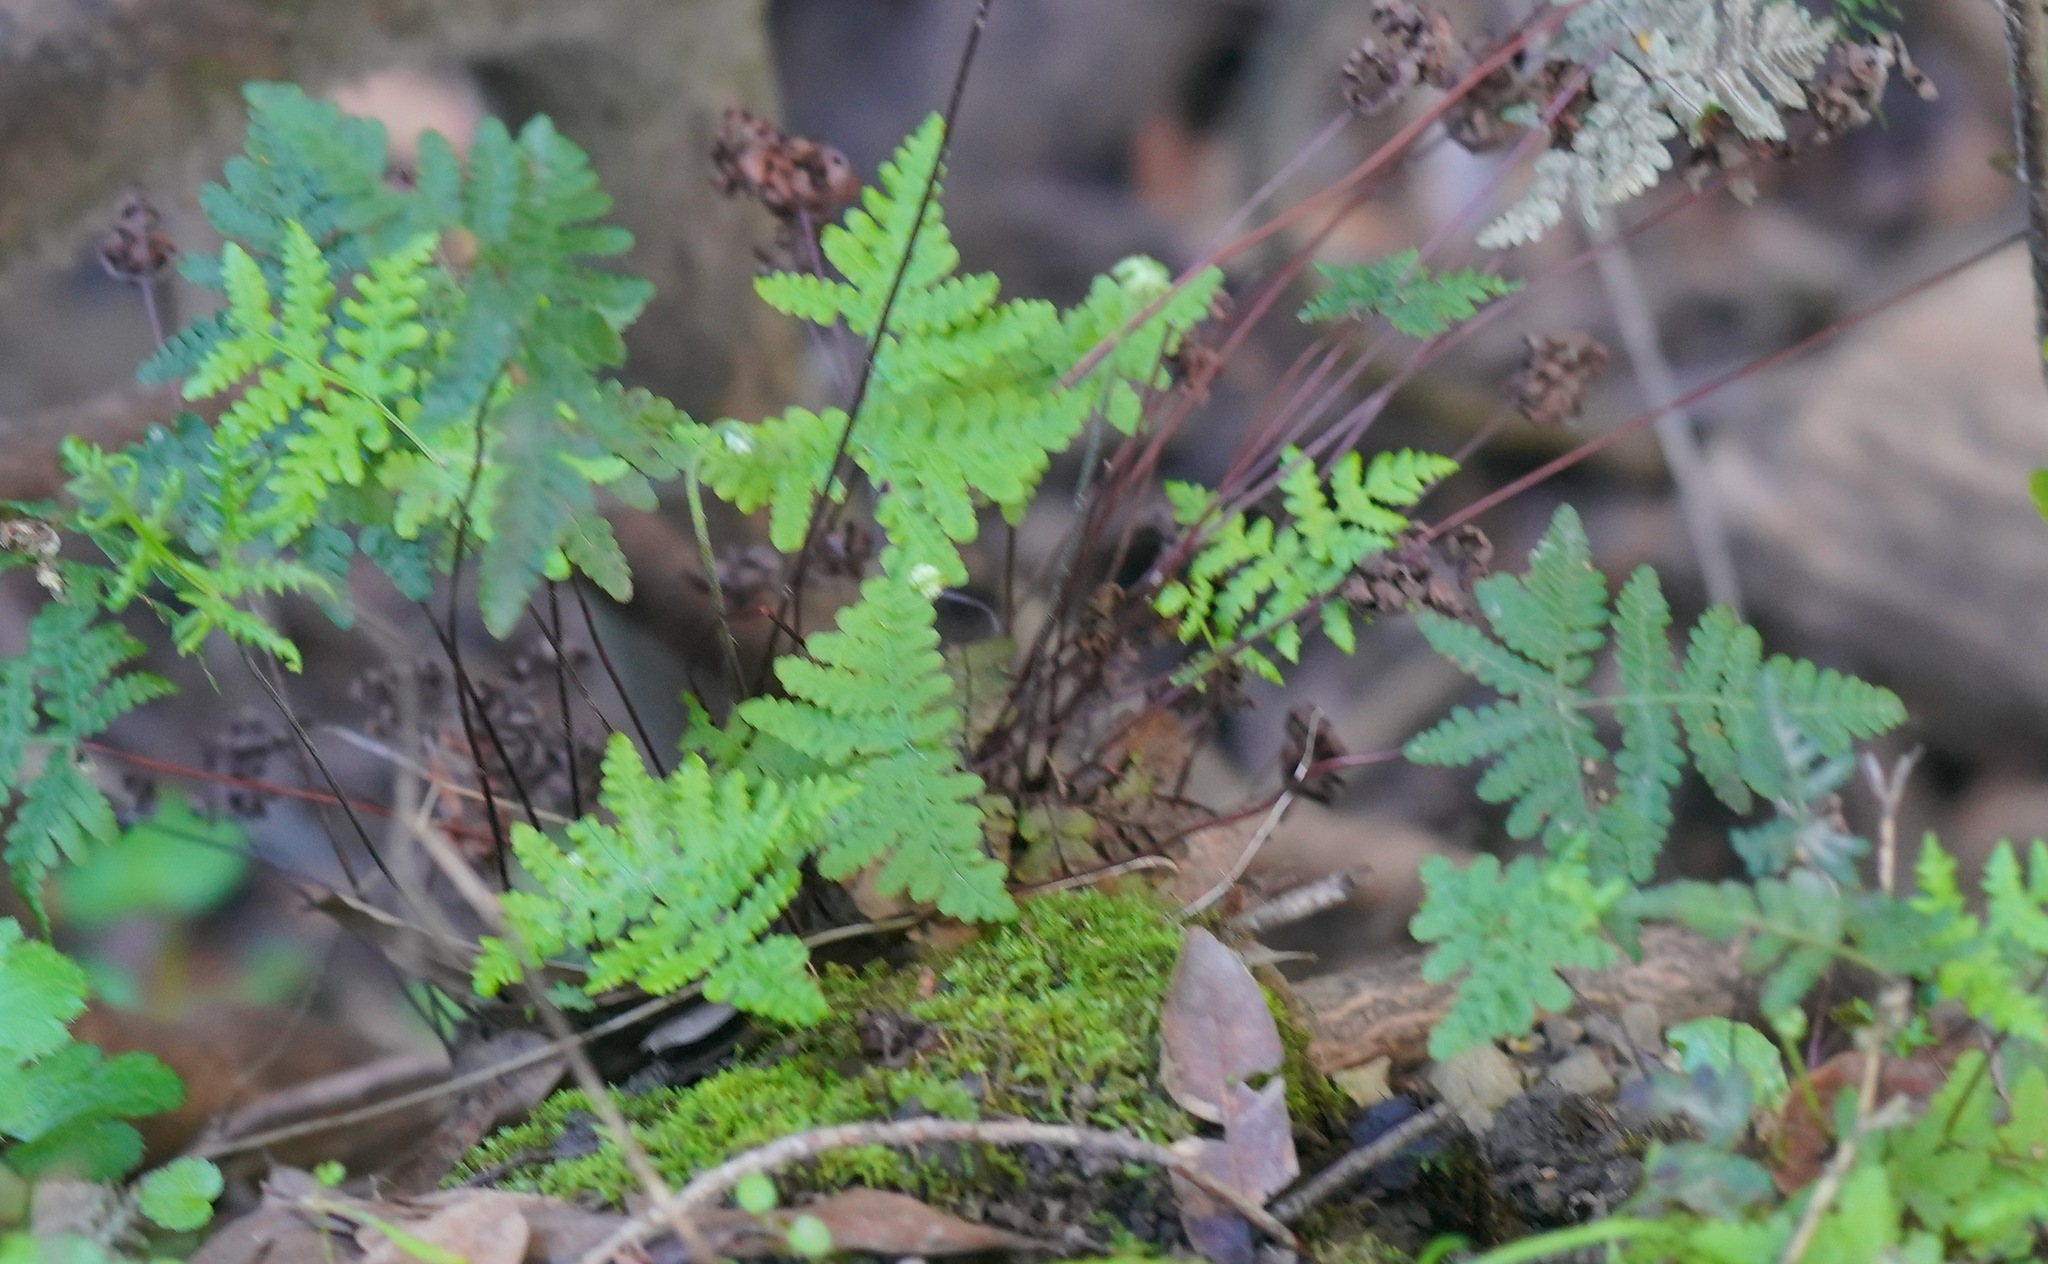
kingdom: Plantae
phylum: Tracheophyta
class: Polypodiopsida
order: Polypodiales
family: Pteridaceae
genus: Pentagramma
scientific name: Pentagramma triangularis
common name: Gold fern
